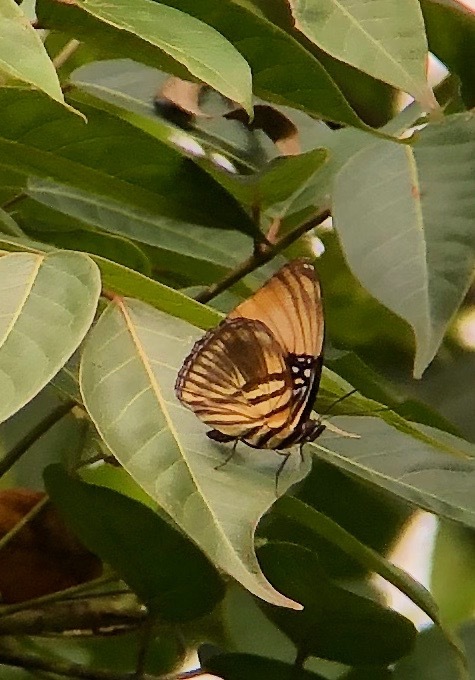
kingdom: Animalia
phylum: Arthropoda
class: Insecta
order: Lepidoptera
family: Nymphalidae
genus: Limenitis
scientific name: Limenitis melanthe
